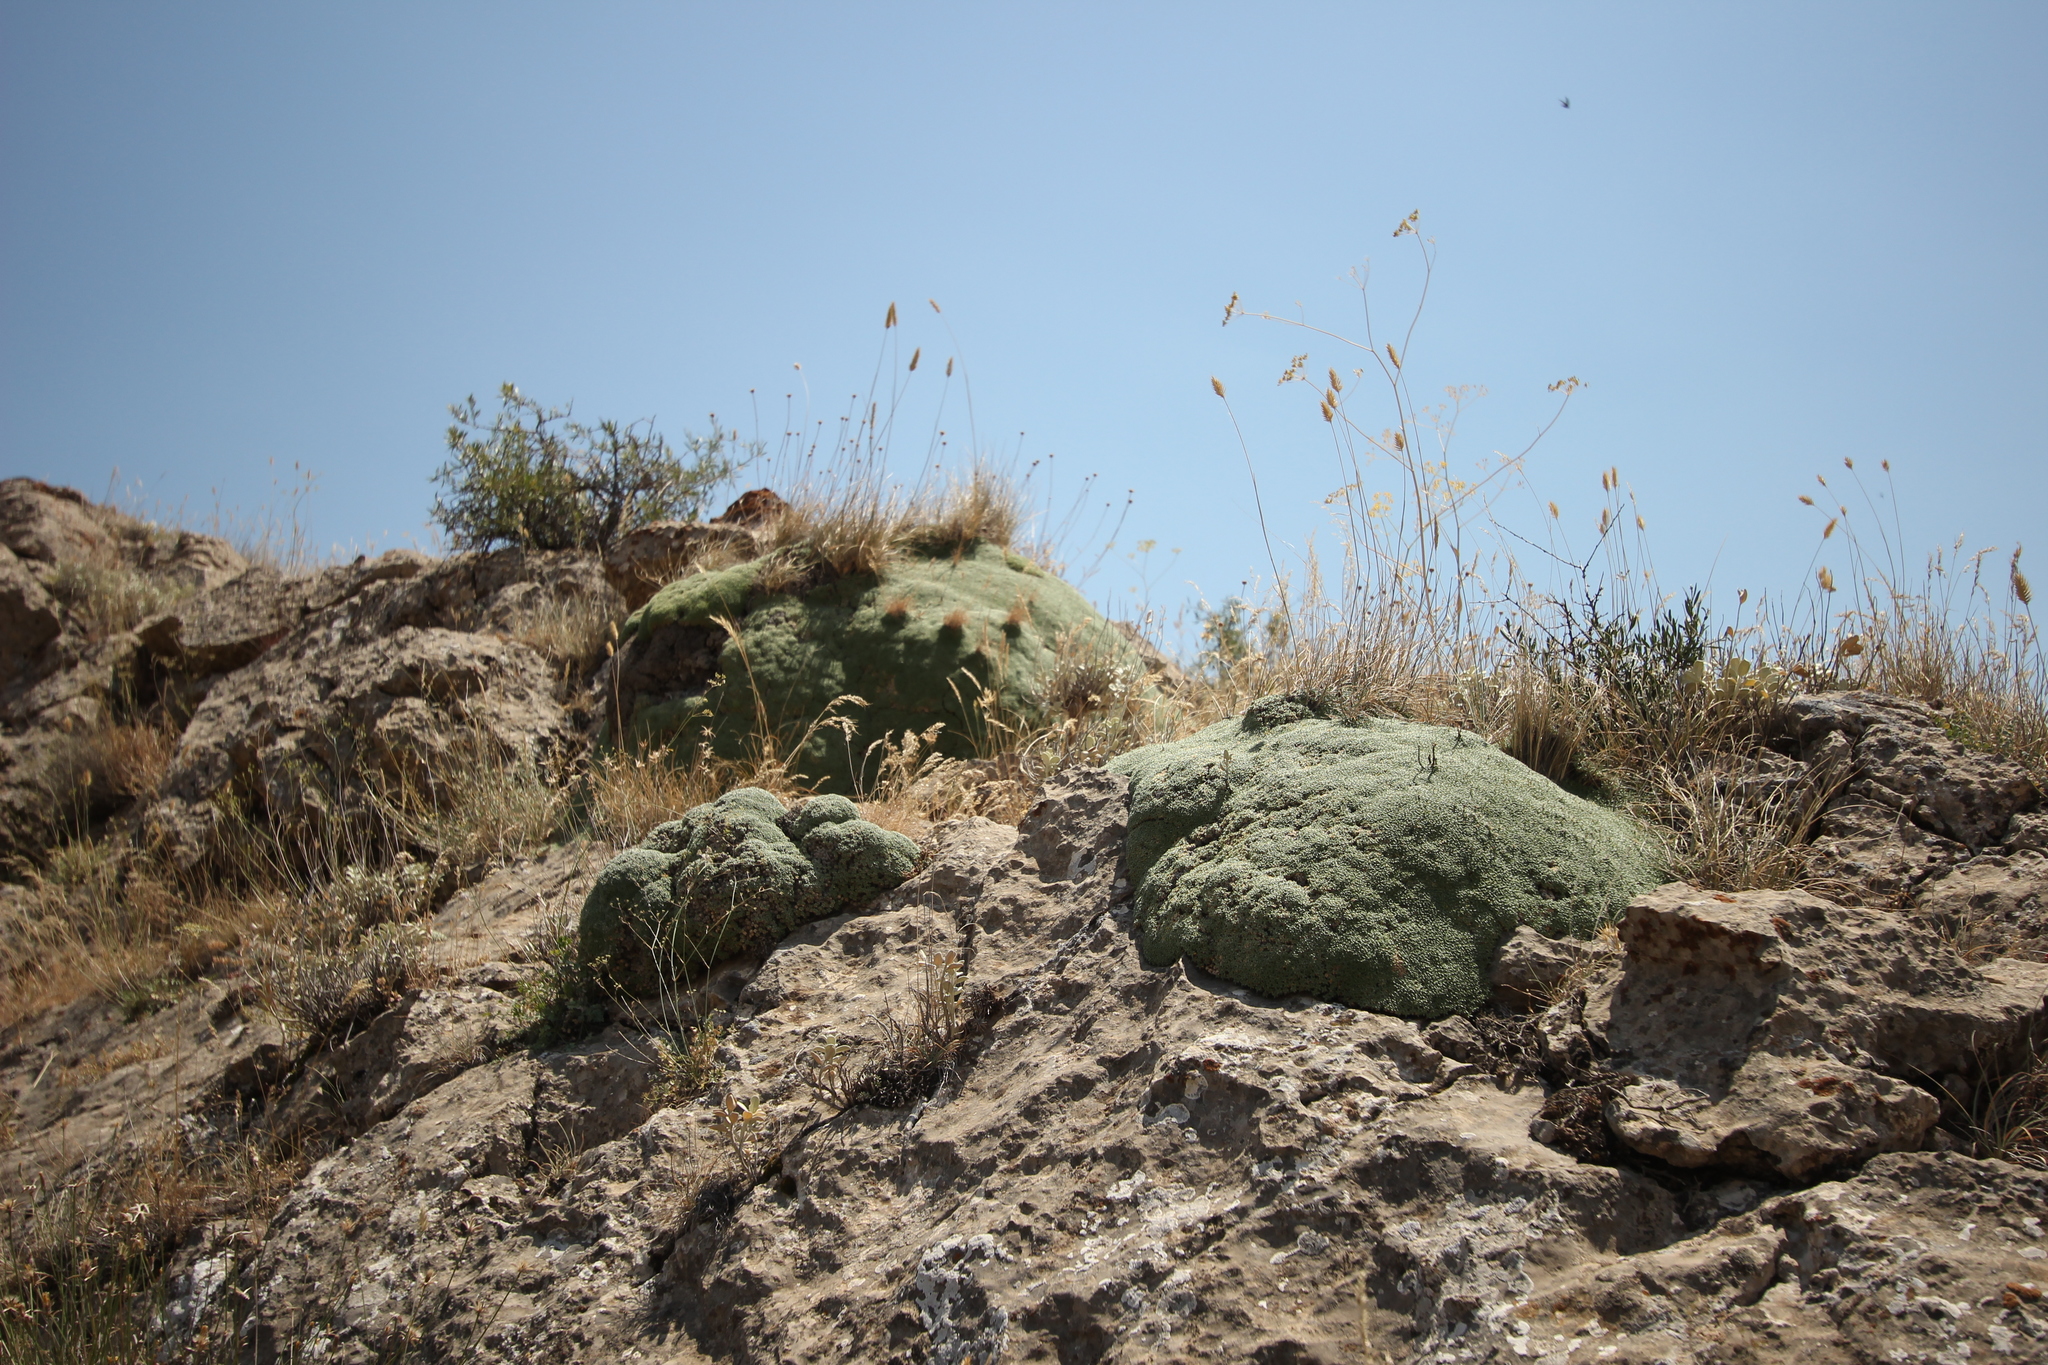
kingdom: Plantae
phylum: Tracheophyta
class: Magnoliopsida
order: Caryophyllales
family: Caryophyllaceae
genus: Gypsophila
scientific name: Gypsophila aretioides
